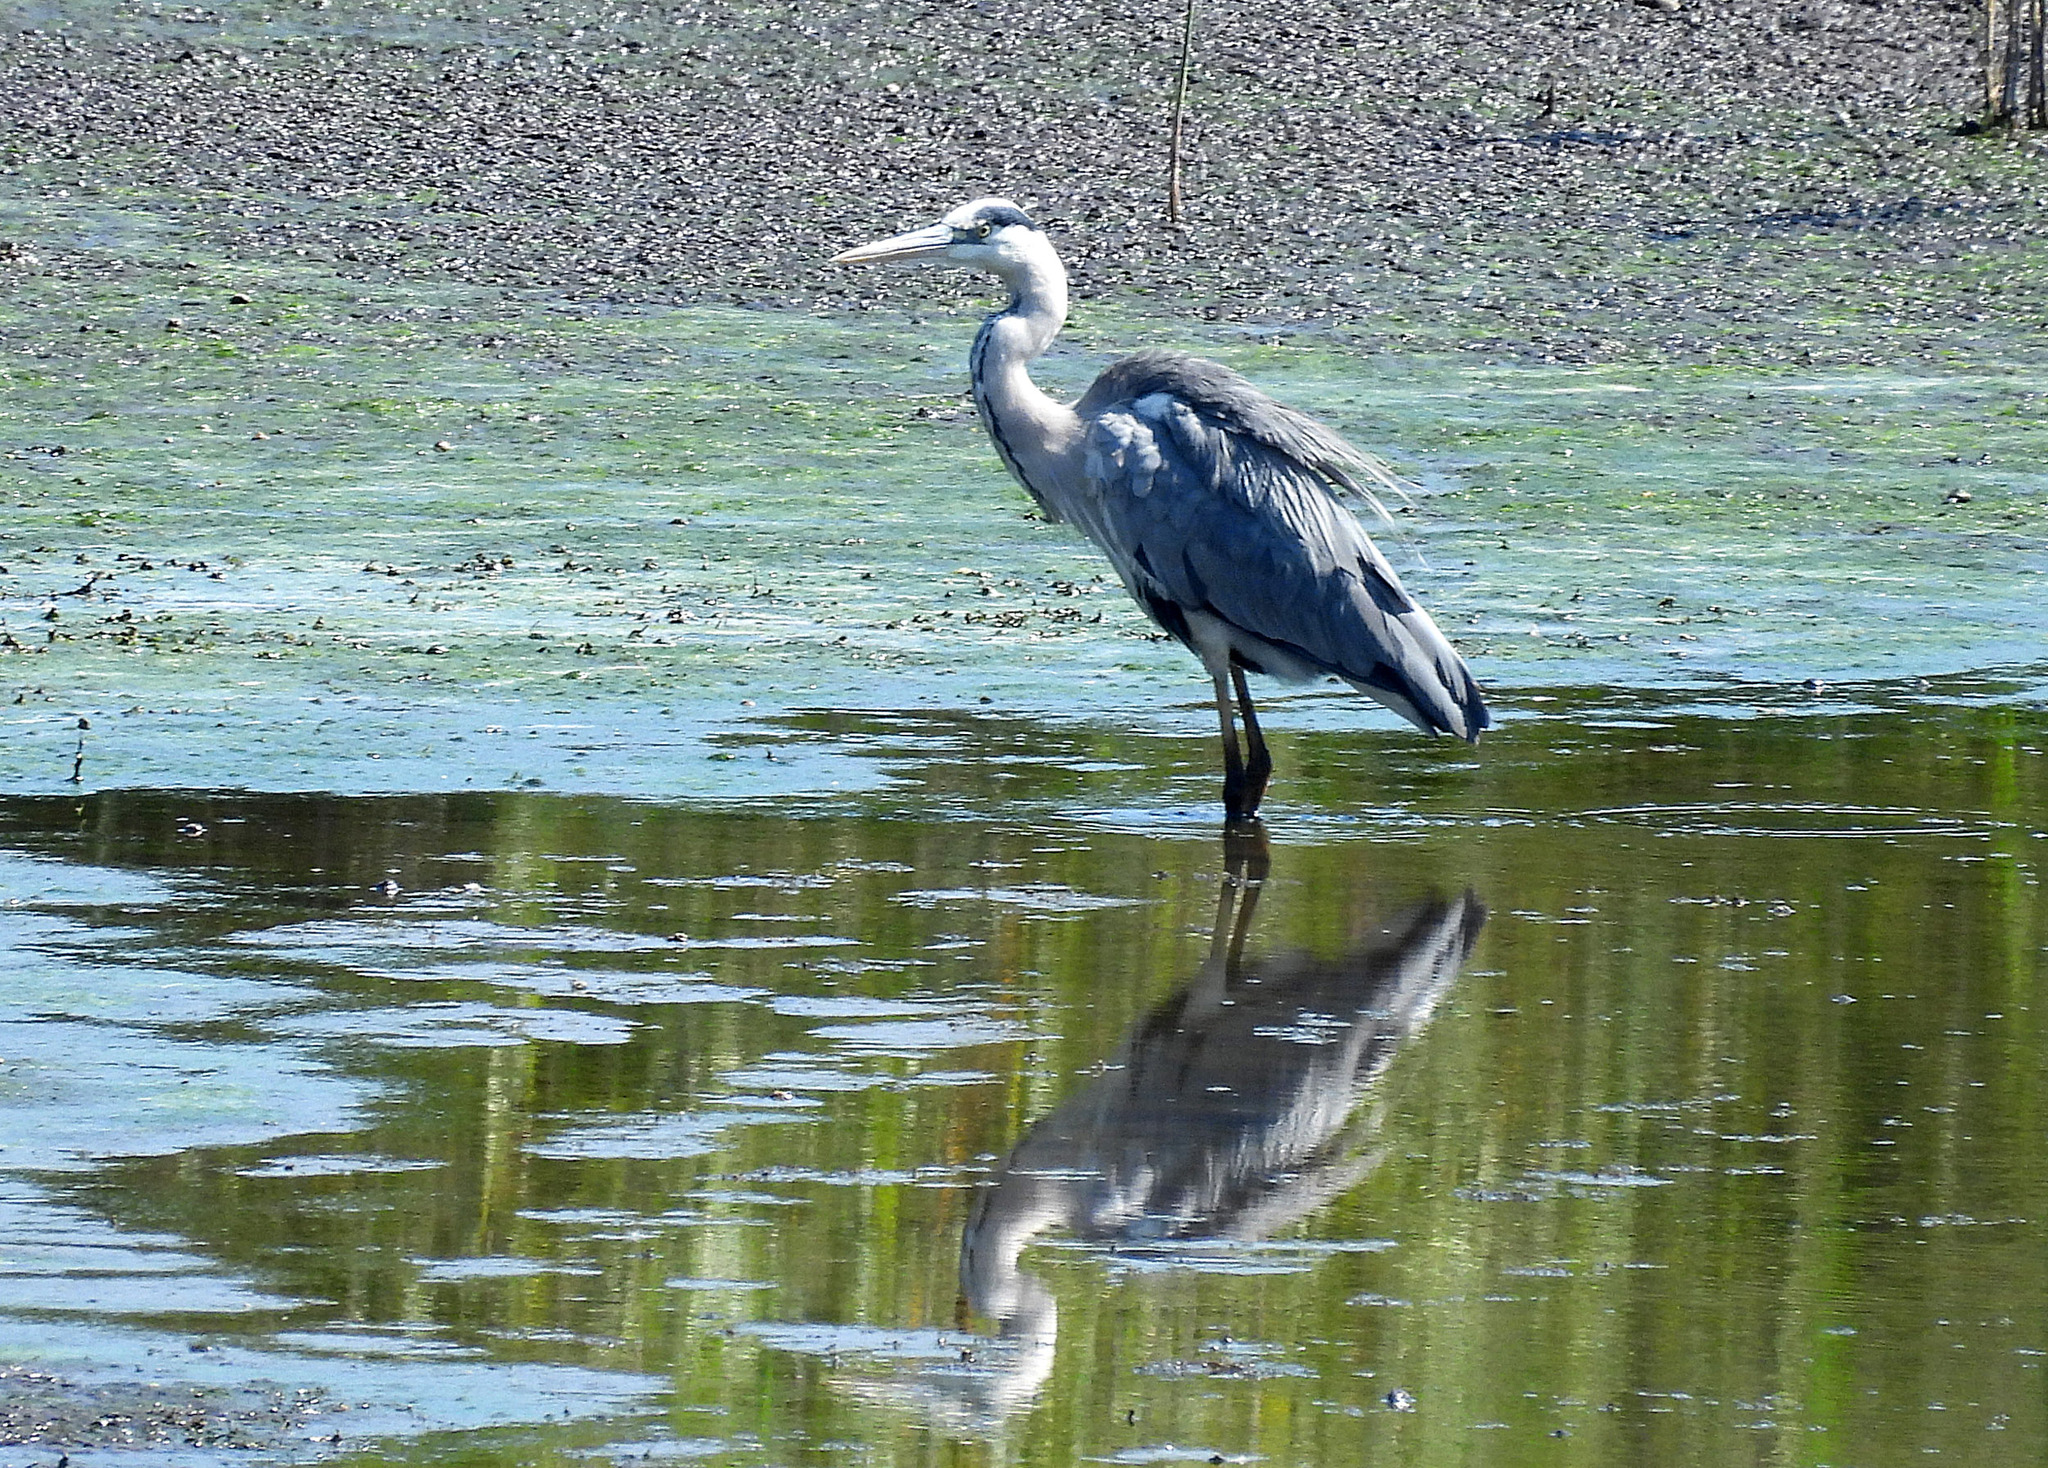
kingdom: Animalia
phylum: Chordata
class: Aves
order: Pelecaniformes
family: Ardeidae
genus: Ardea
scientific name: Ardea cinerea
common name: Grey heron
